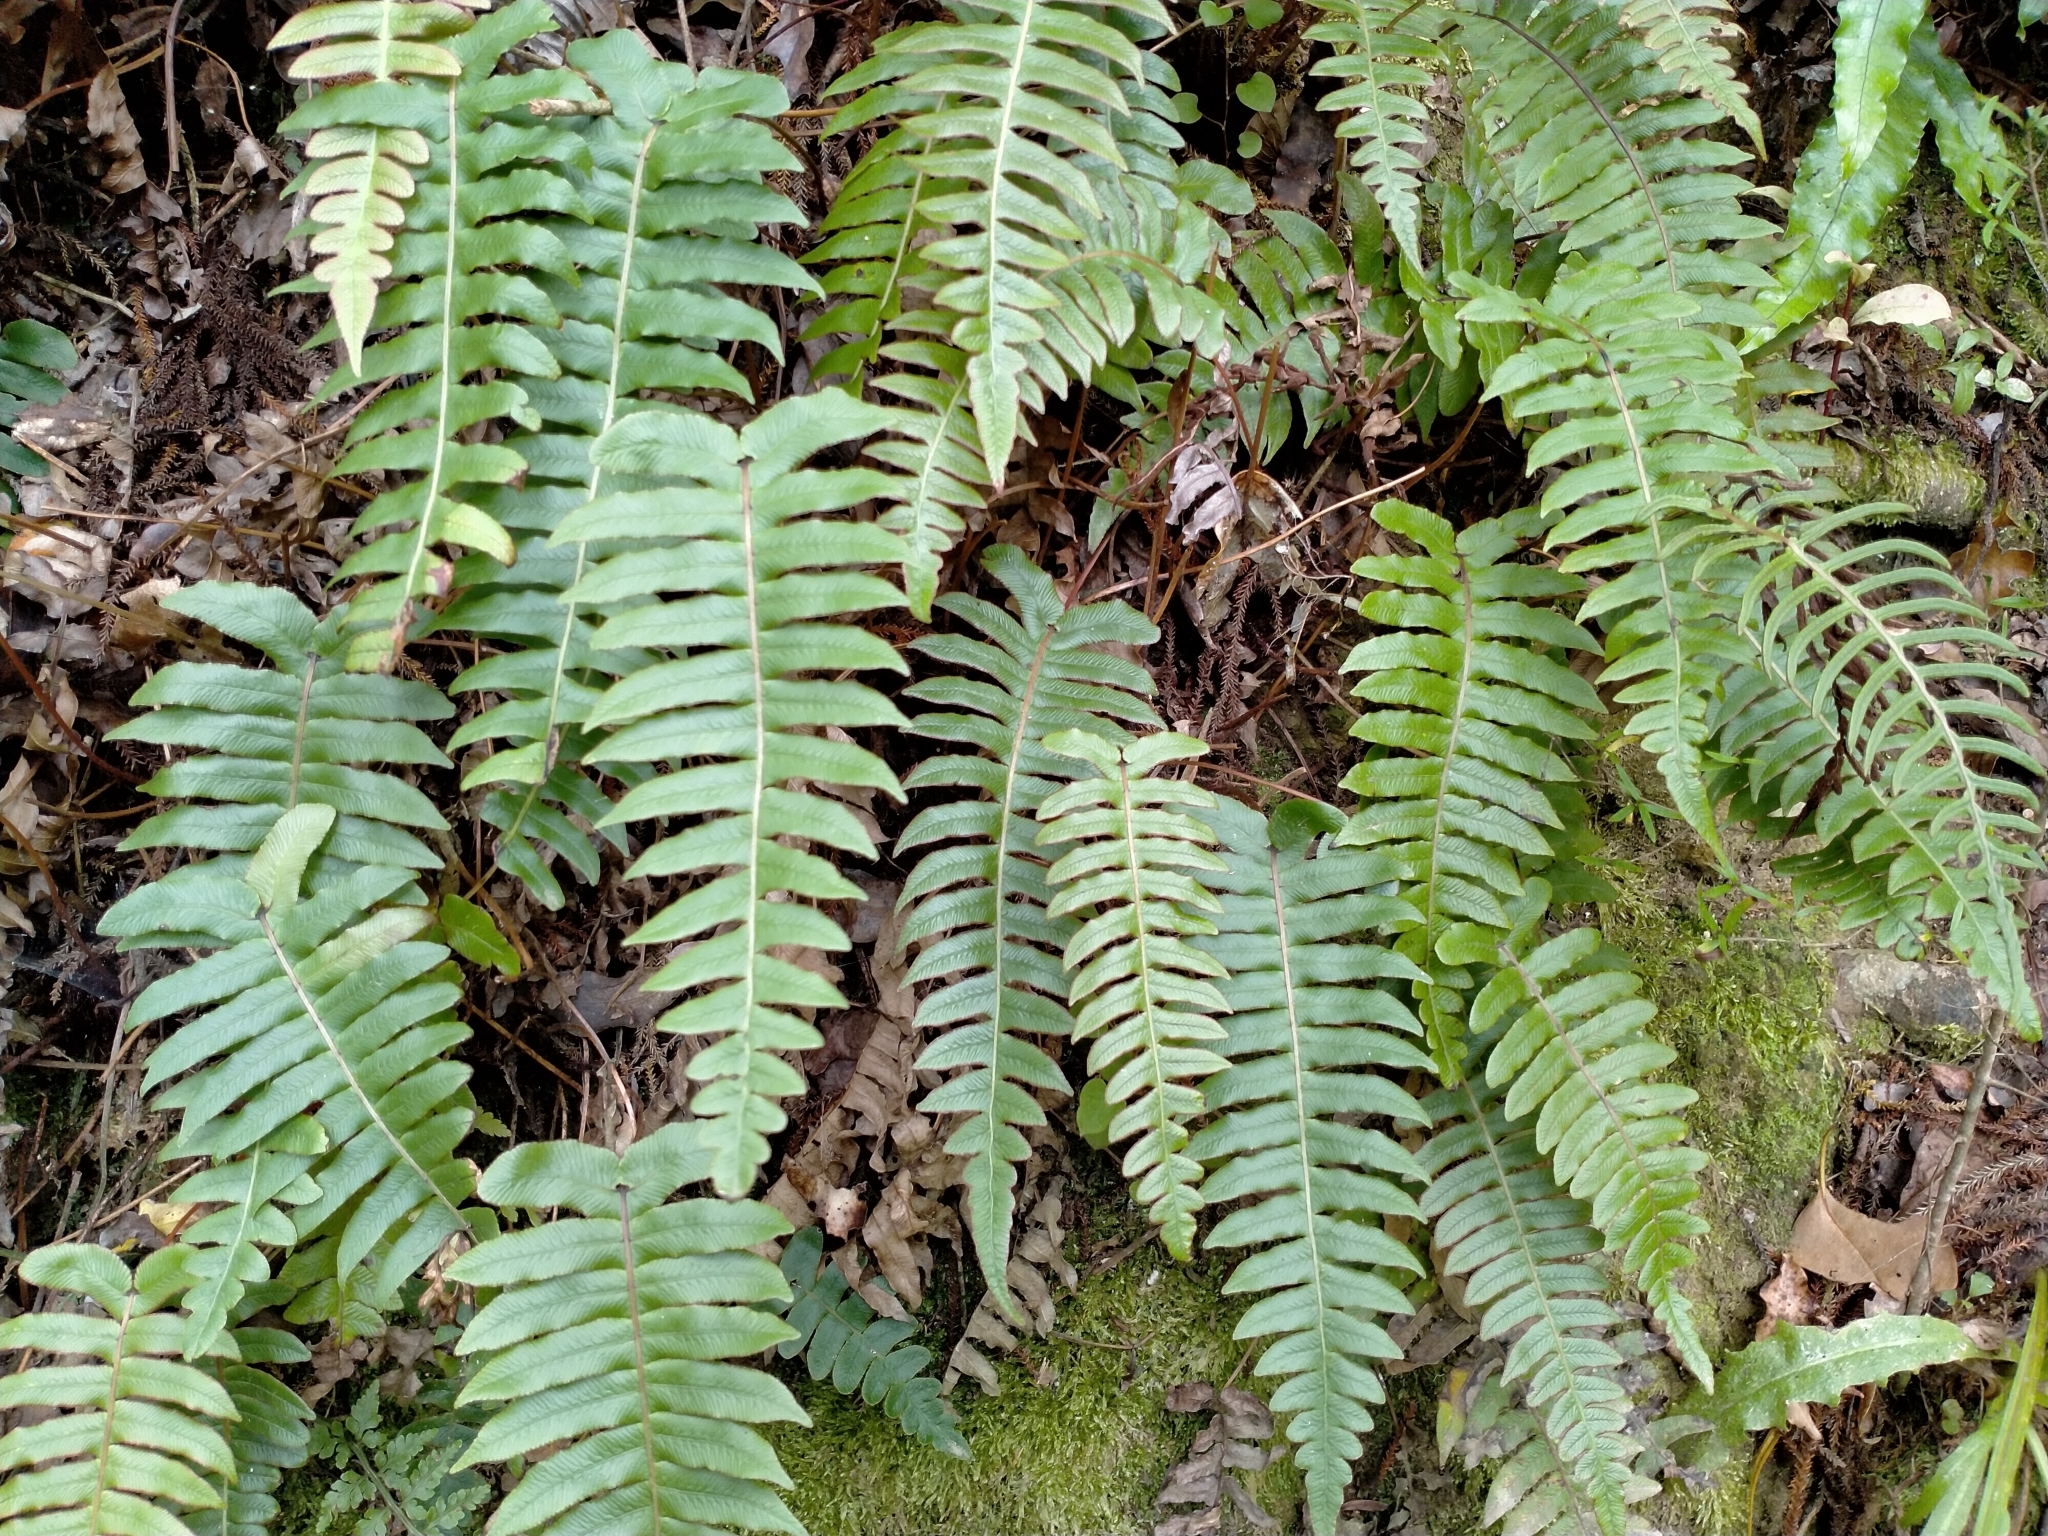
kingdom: Plantae
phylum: Tracheophyta
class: Polypodiopsida
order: Polypodiales
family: Blechnaceae
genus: Cranfillia
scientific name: Cranfillia deltoides
